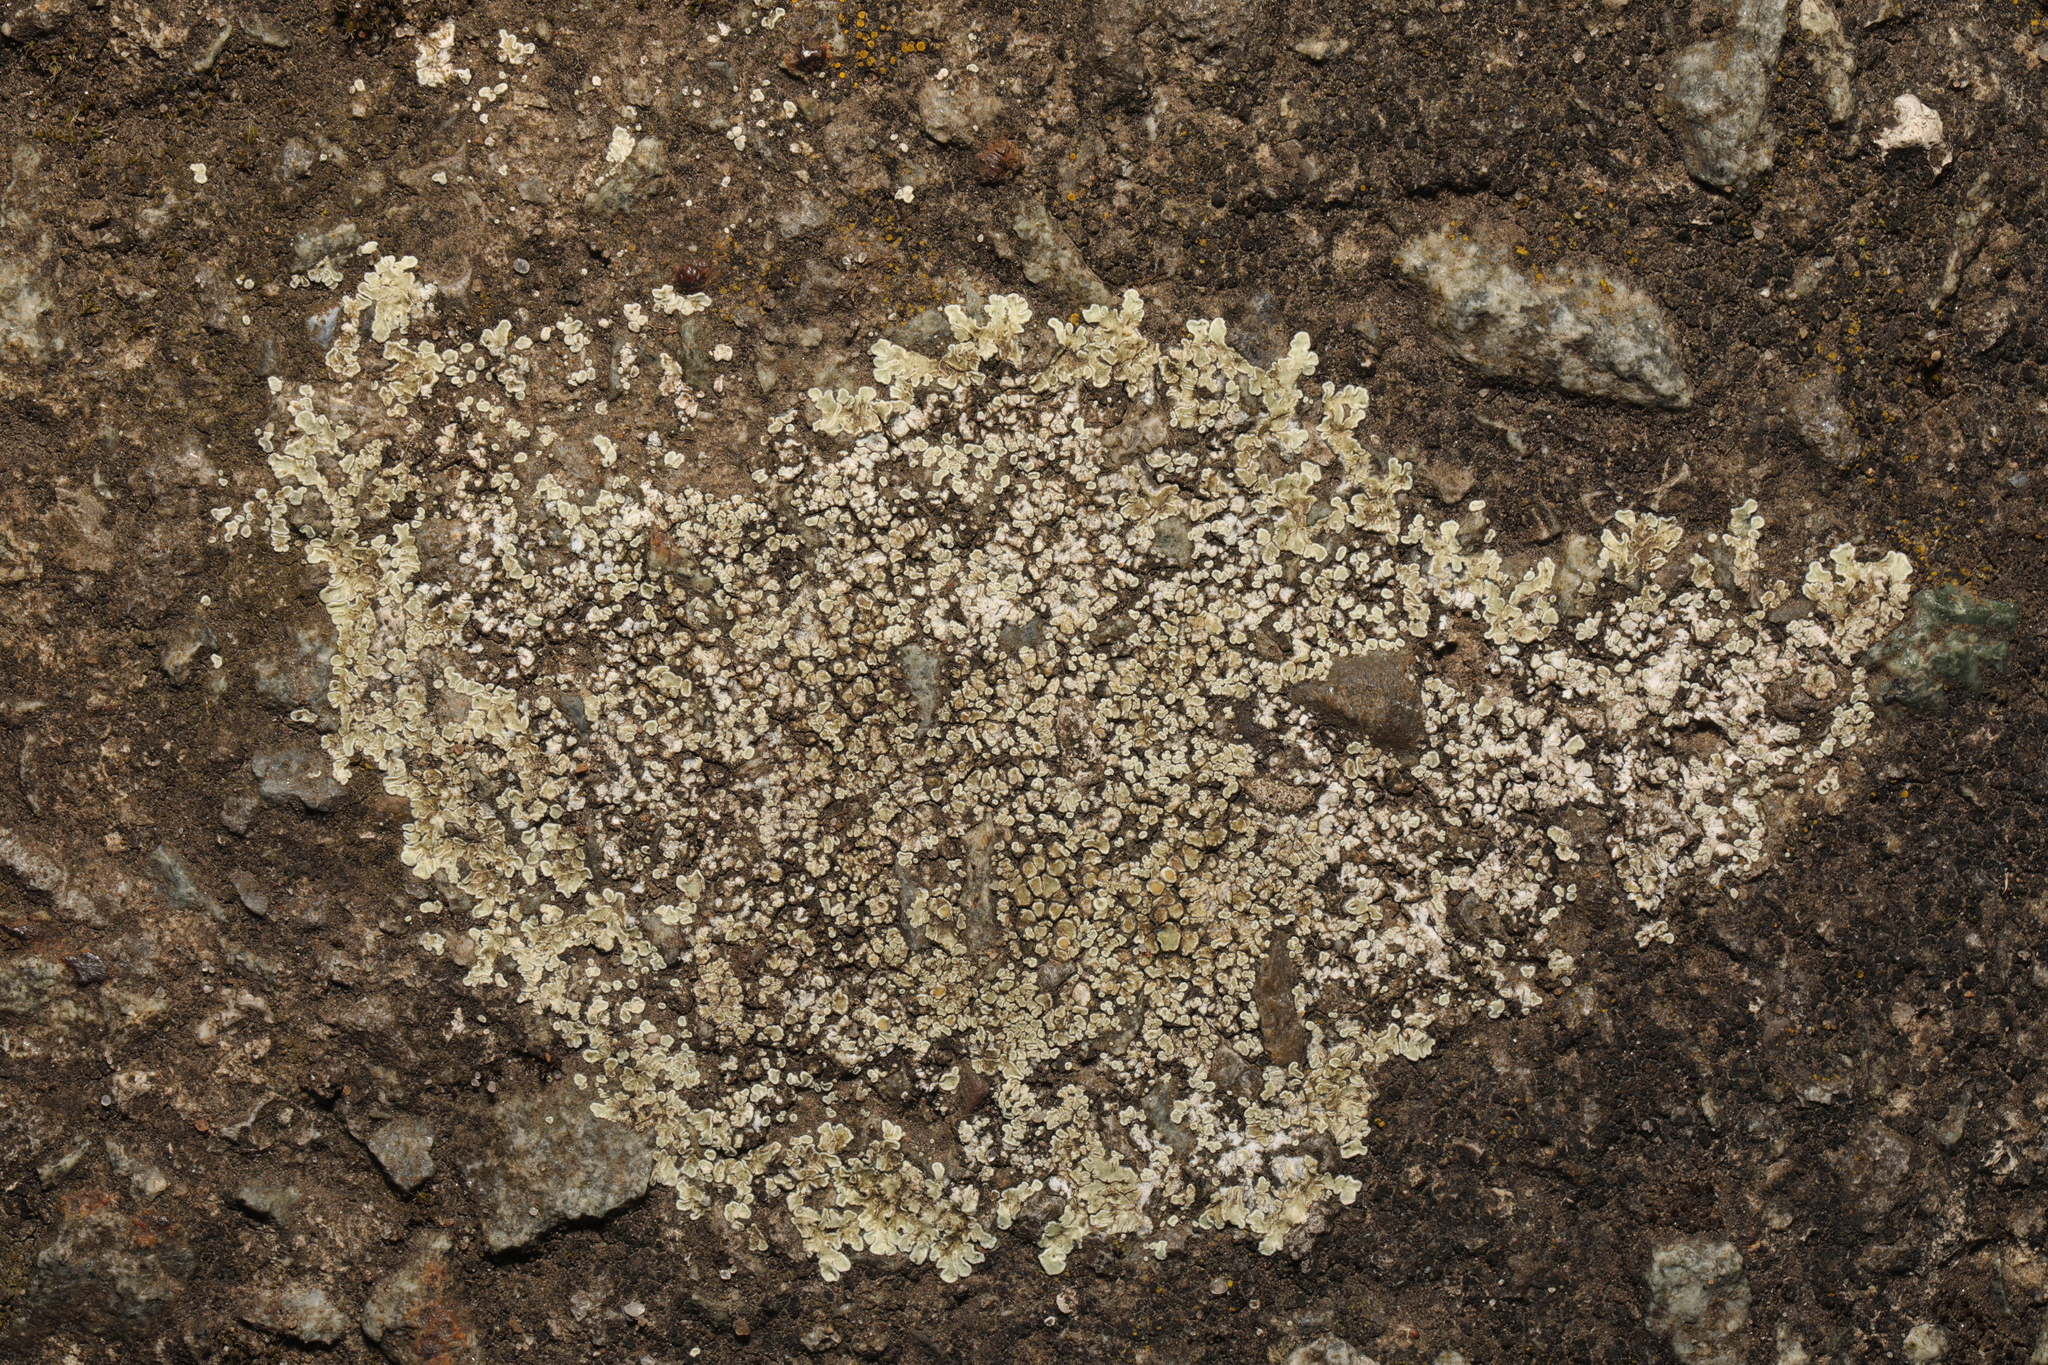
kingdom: Fungi
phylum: Ascomycota
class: Lecanoromycetes
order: Lecanorales
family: Lecanoraceae
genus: Protoparmeliopsis
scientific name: Protoparmeliopsis muralis
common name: Stonewall rim lichen
